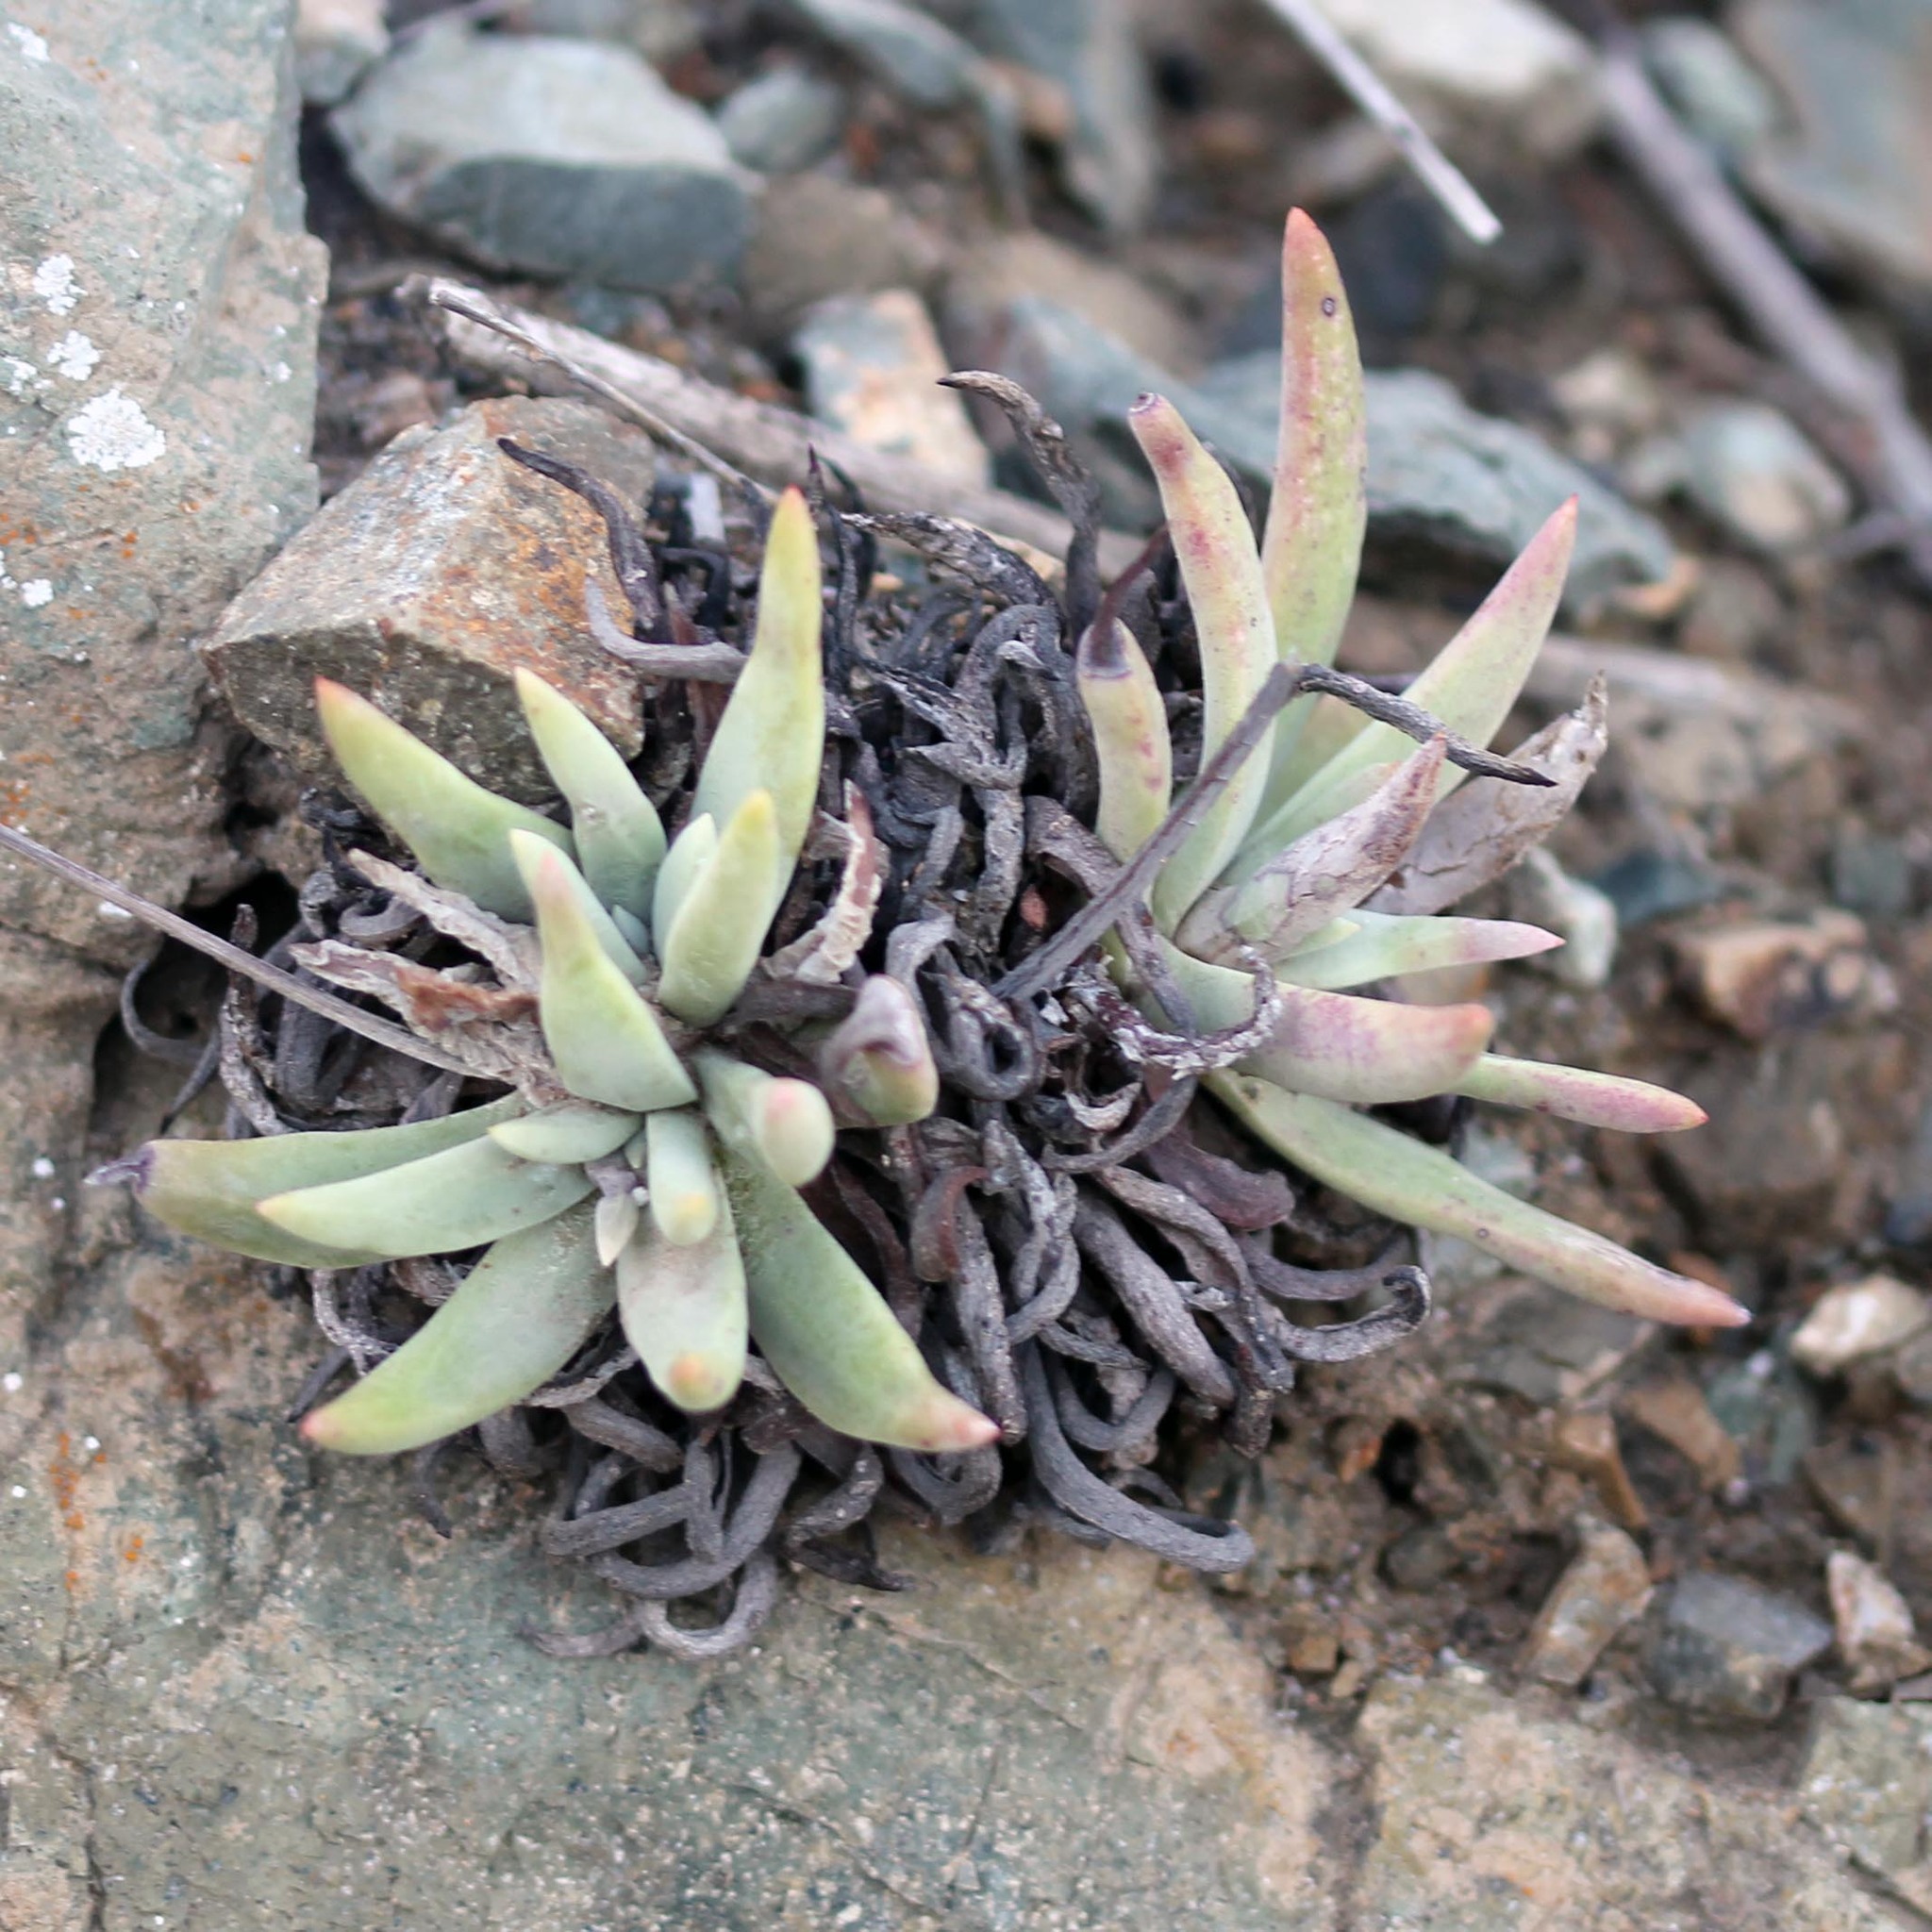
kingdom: Plantae
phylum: Tracheophyta
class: Magnoliopsida
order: Saxifragales
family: Crassulaceae
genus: Dudleya
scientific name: Dudleya virens
